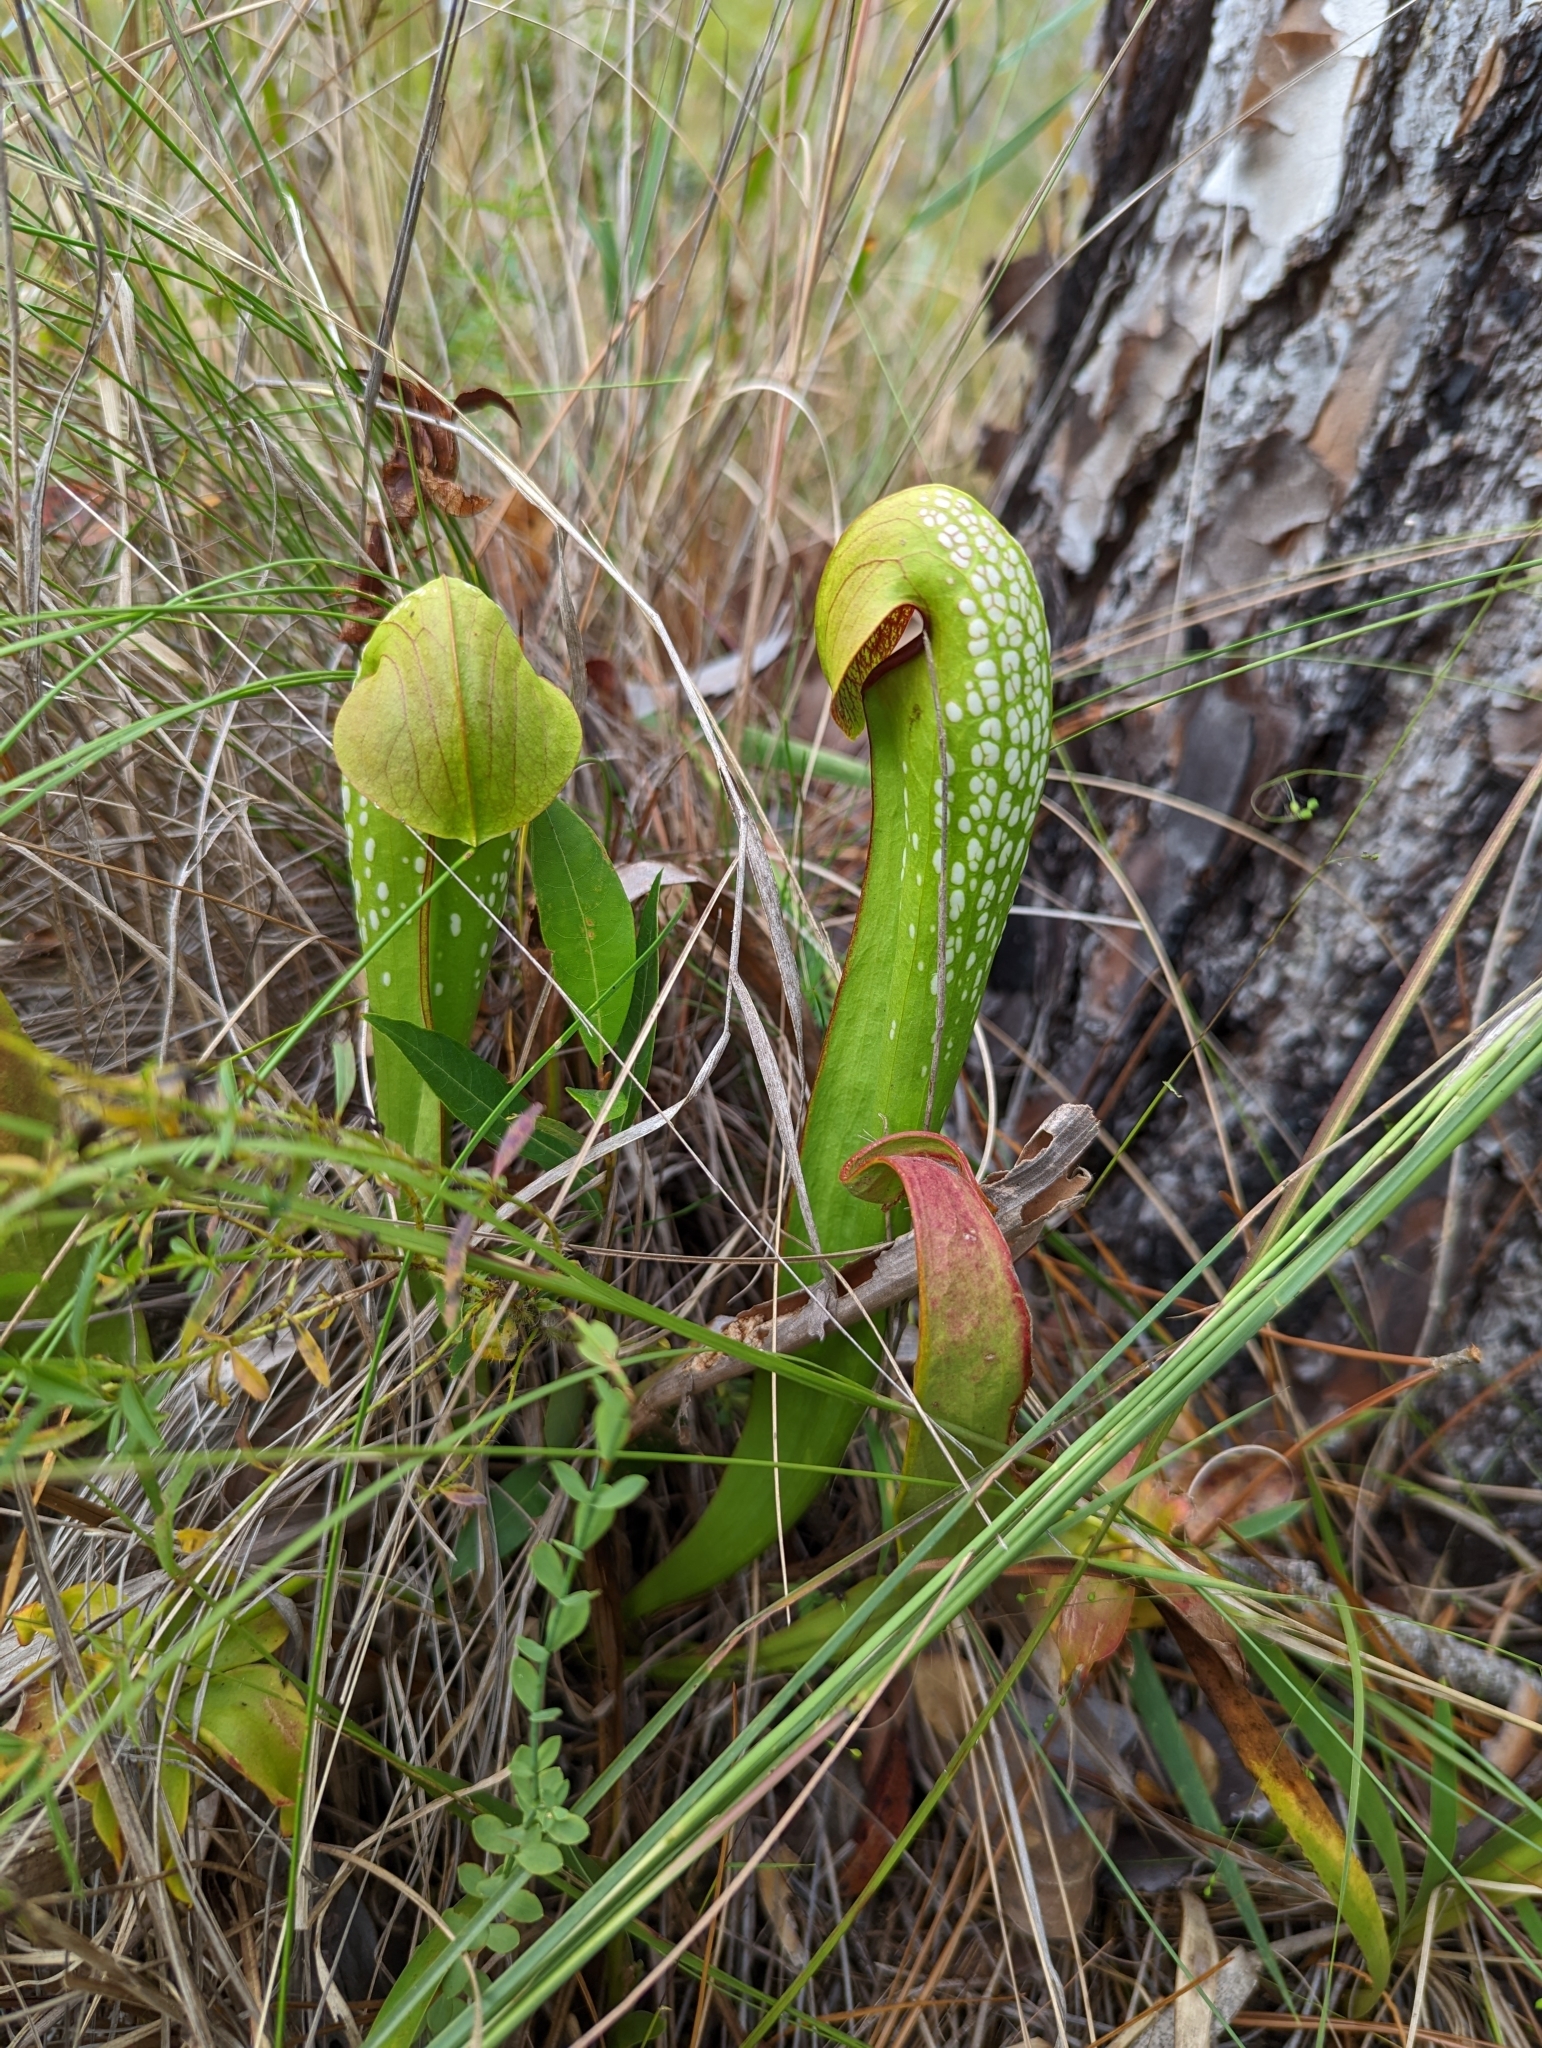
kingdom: Plantae
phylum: Tracheophyta
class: Magnoliopsida
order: Ericales
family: Sarraceniaceae
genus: Sarracenia
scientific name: Sarracenia minor
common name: Rainhat-trumpet
